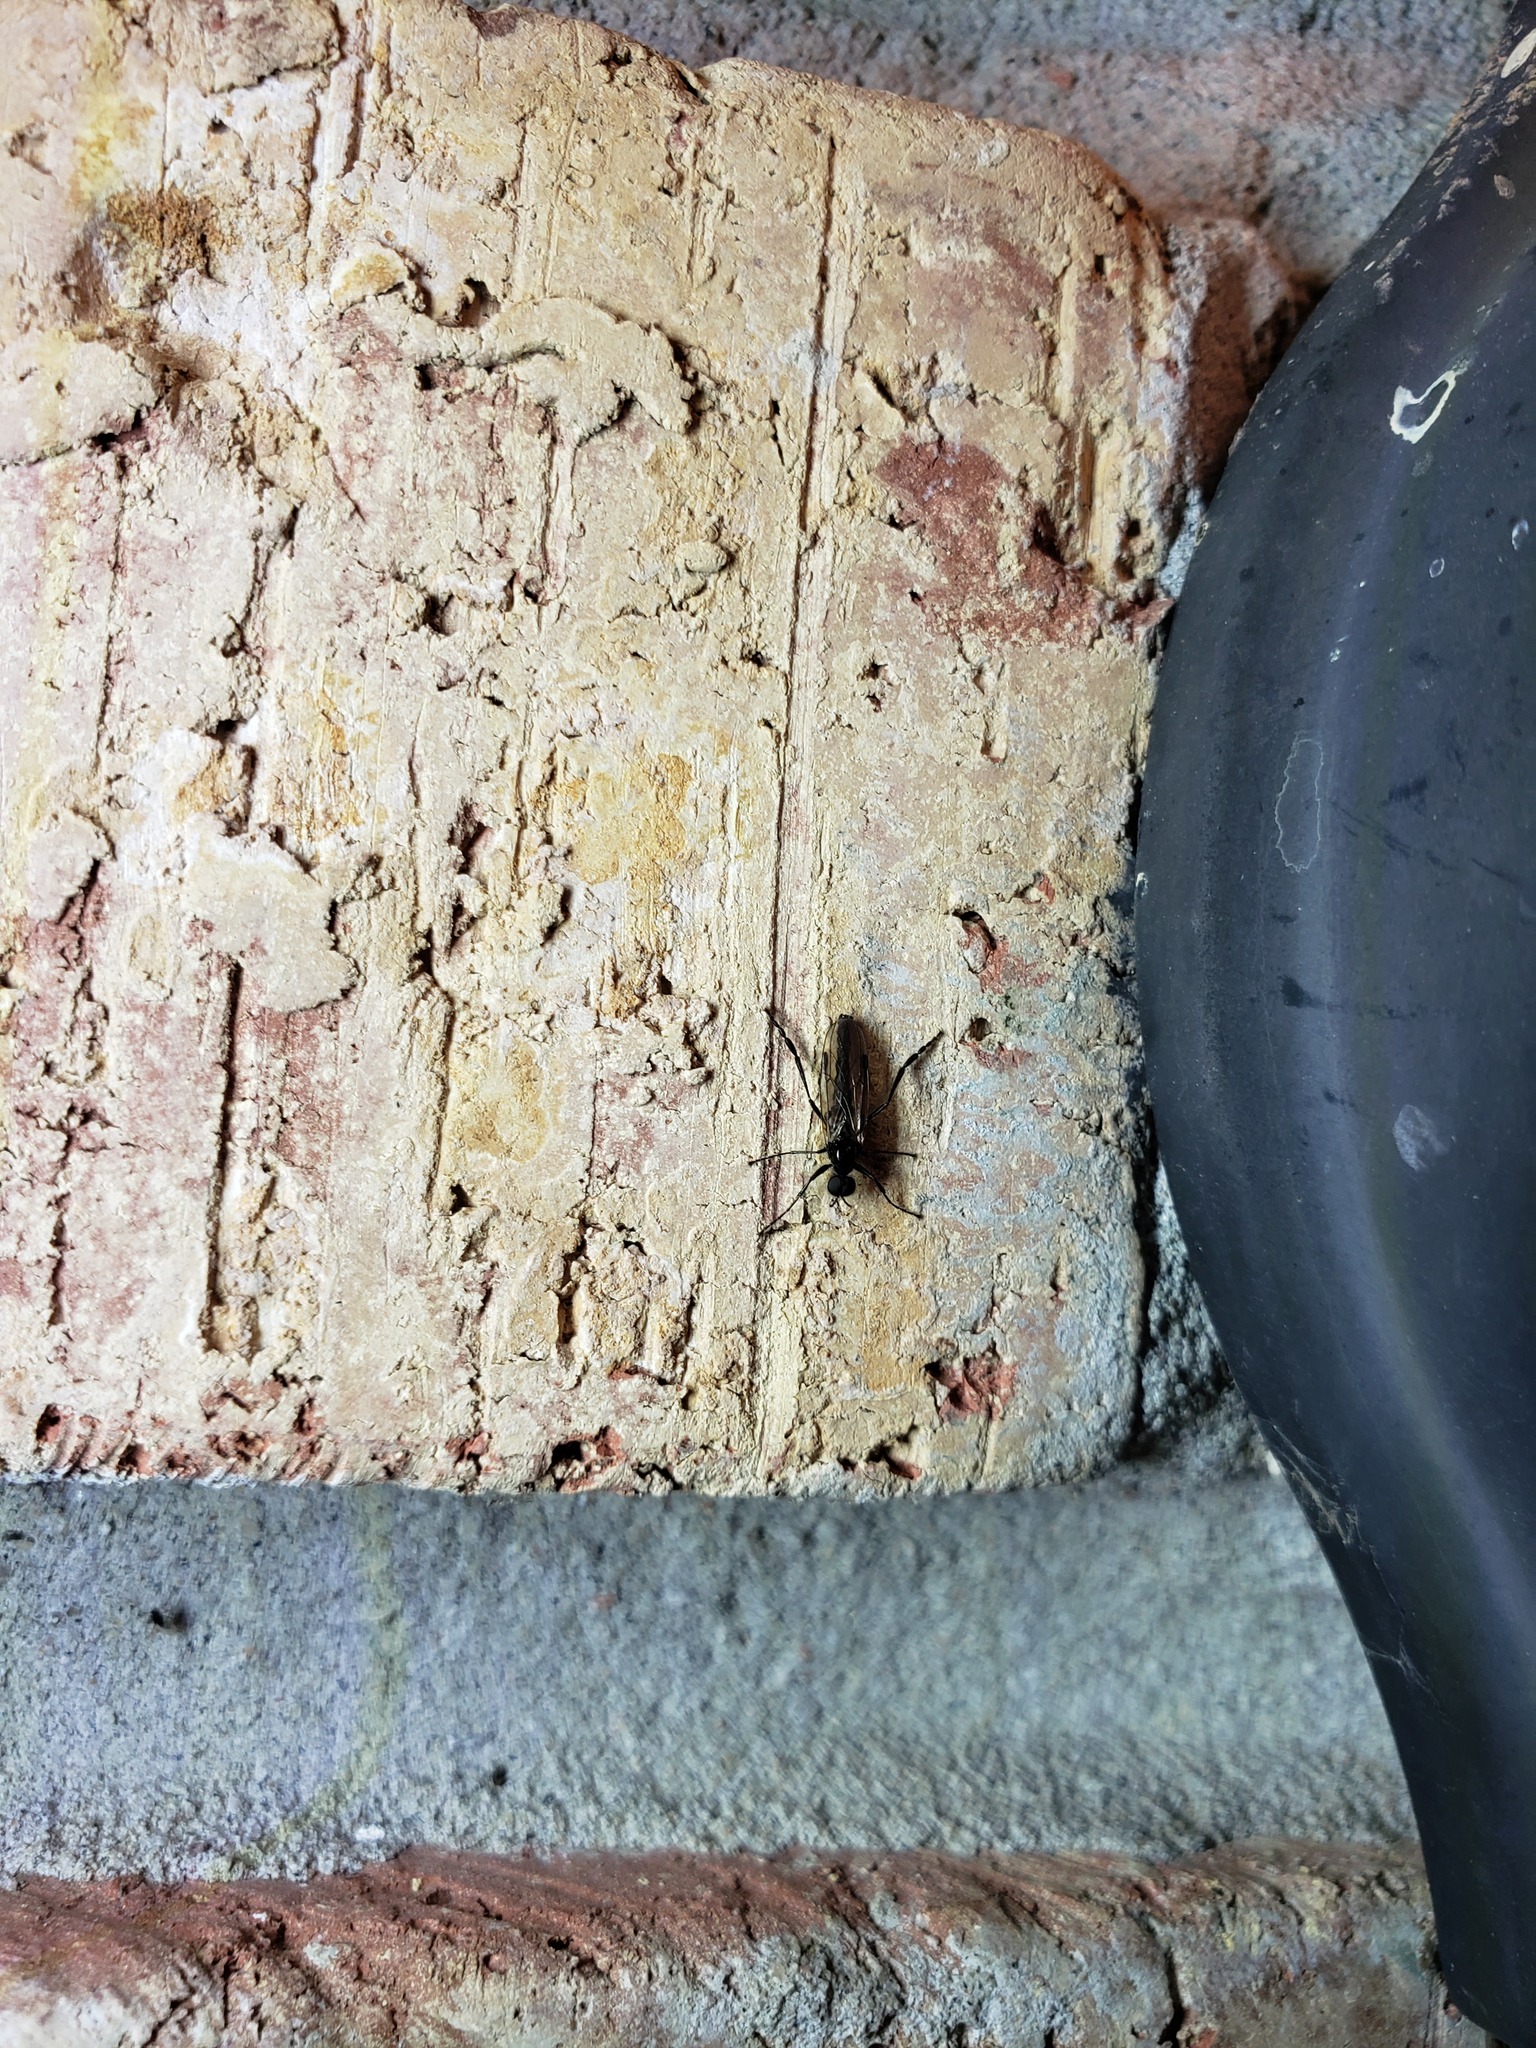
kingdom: Animalia
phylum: Arthropoda
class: Insecta
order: Diptera
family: Bibionidae
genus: Bibio
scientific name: Bibio slossonae
